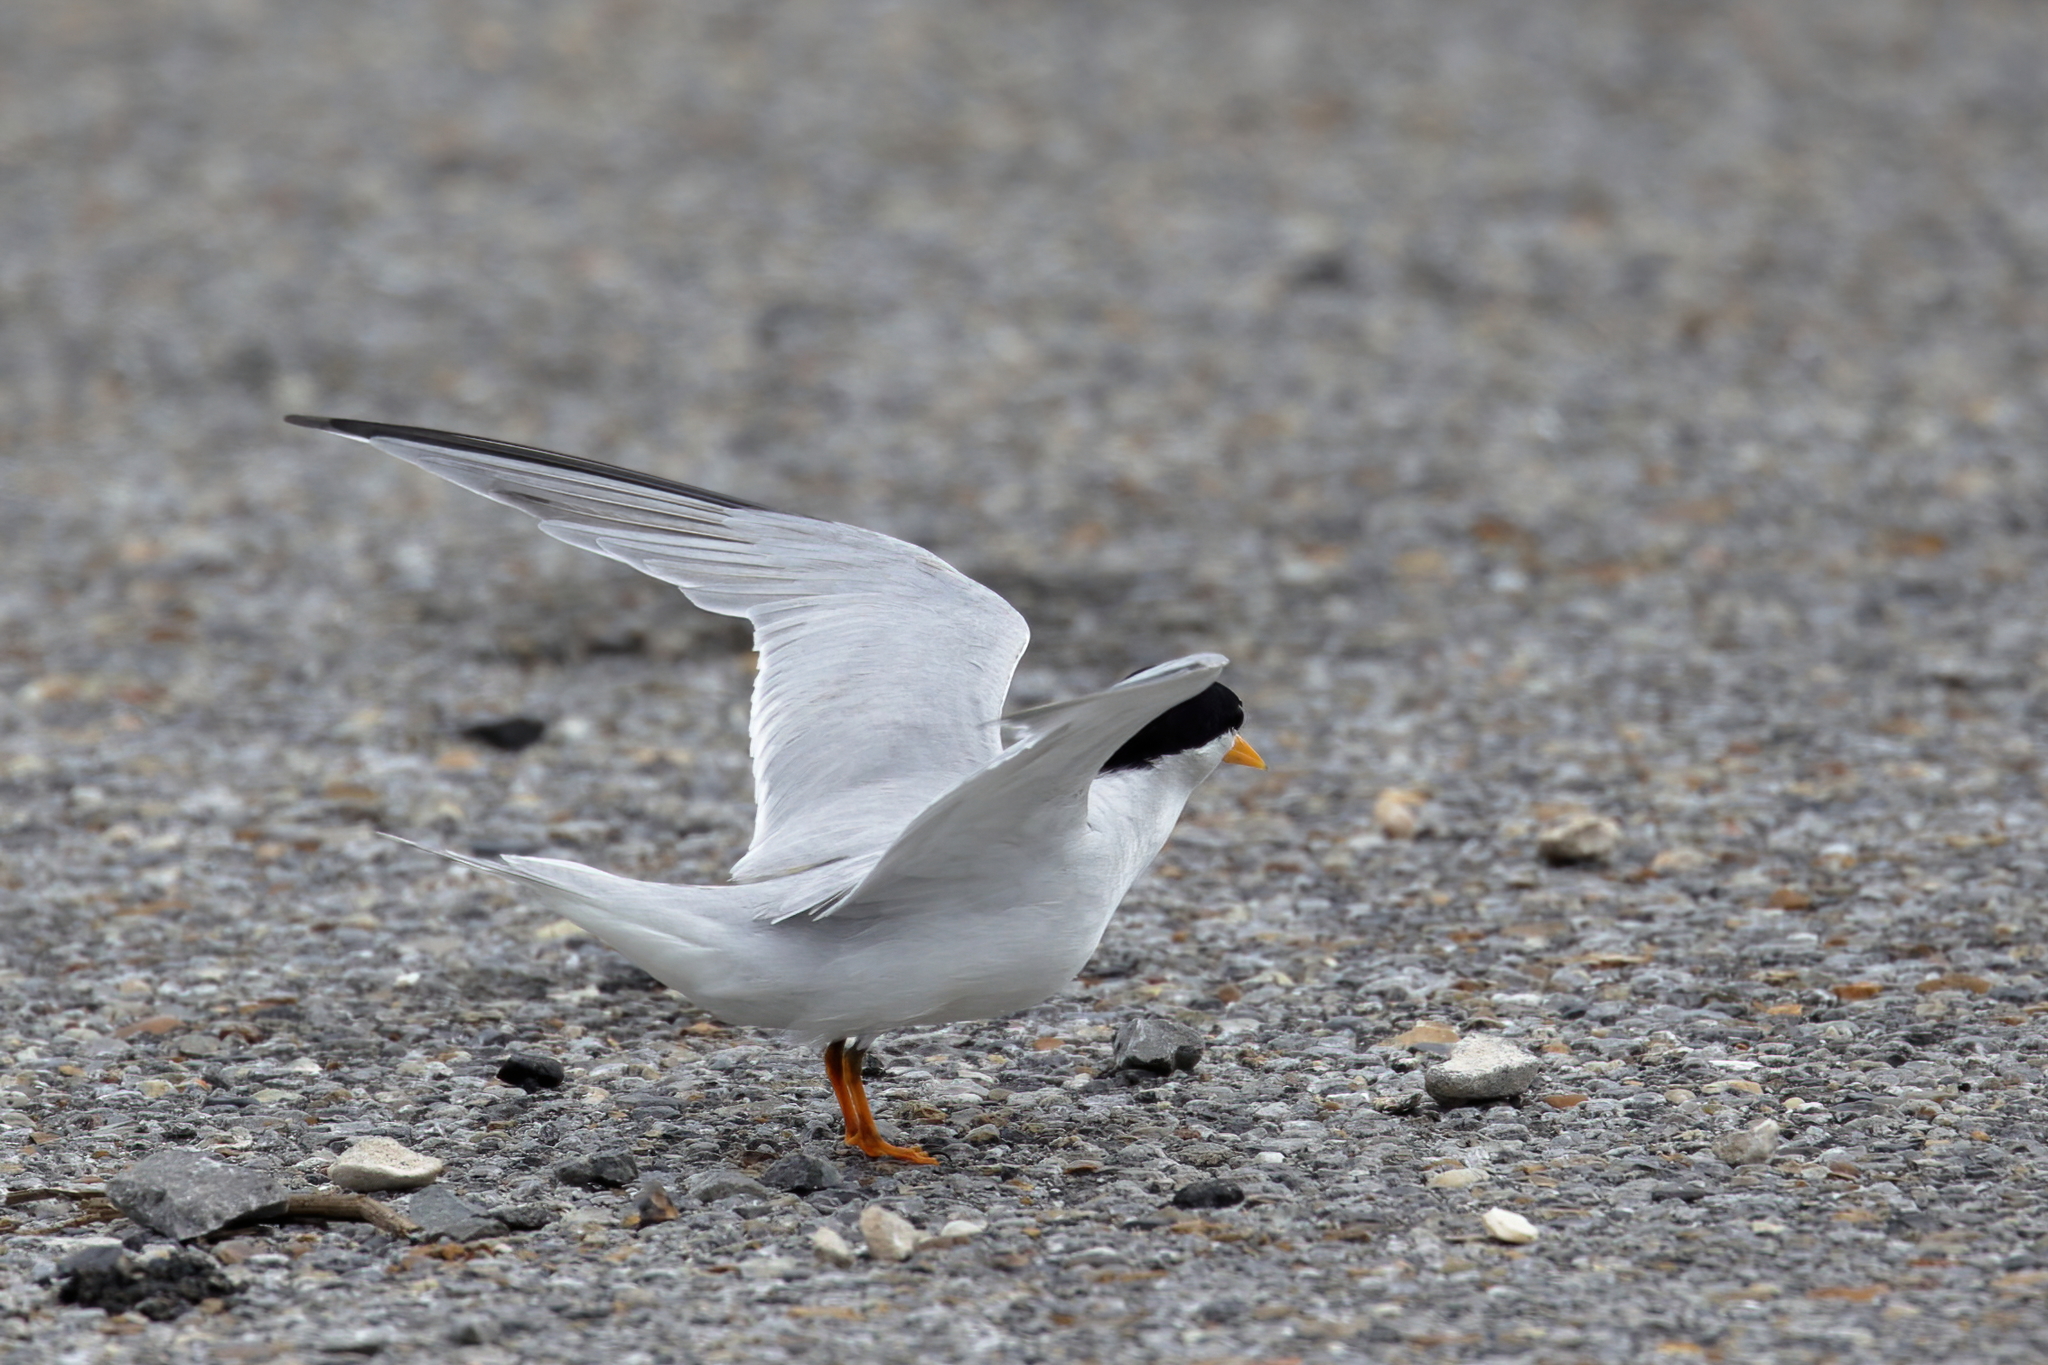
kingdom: Animalia
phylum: Chordata
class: Aves
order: Charadriiformes
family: Laridae
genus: Sternula
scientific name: Sternula antillarum
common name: Least tern
